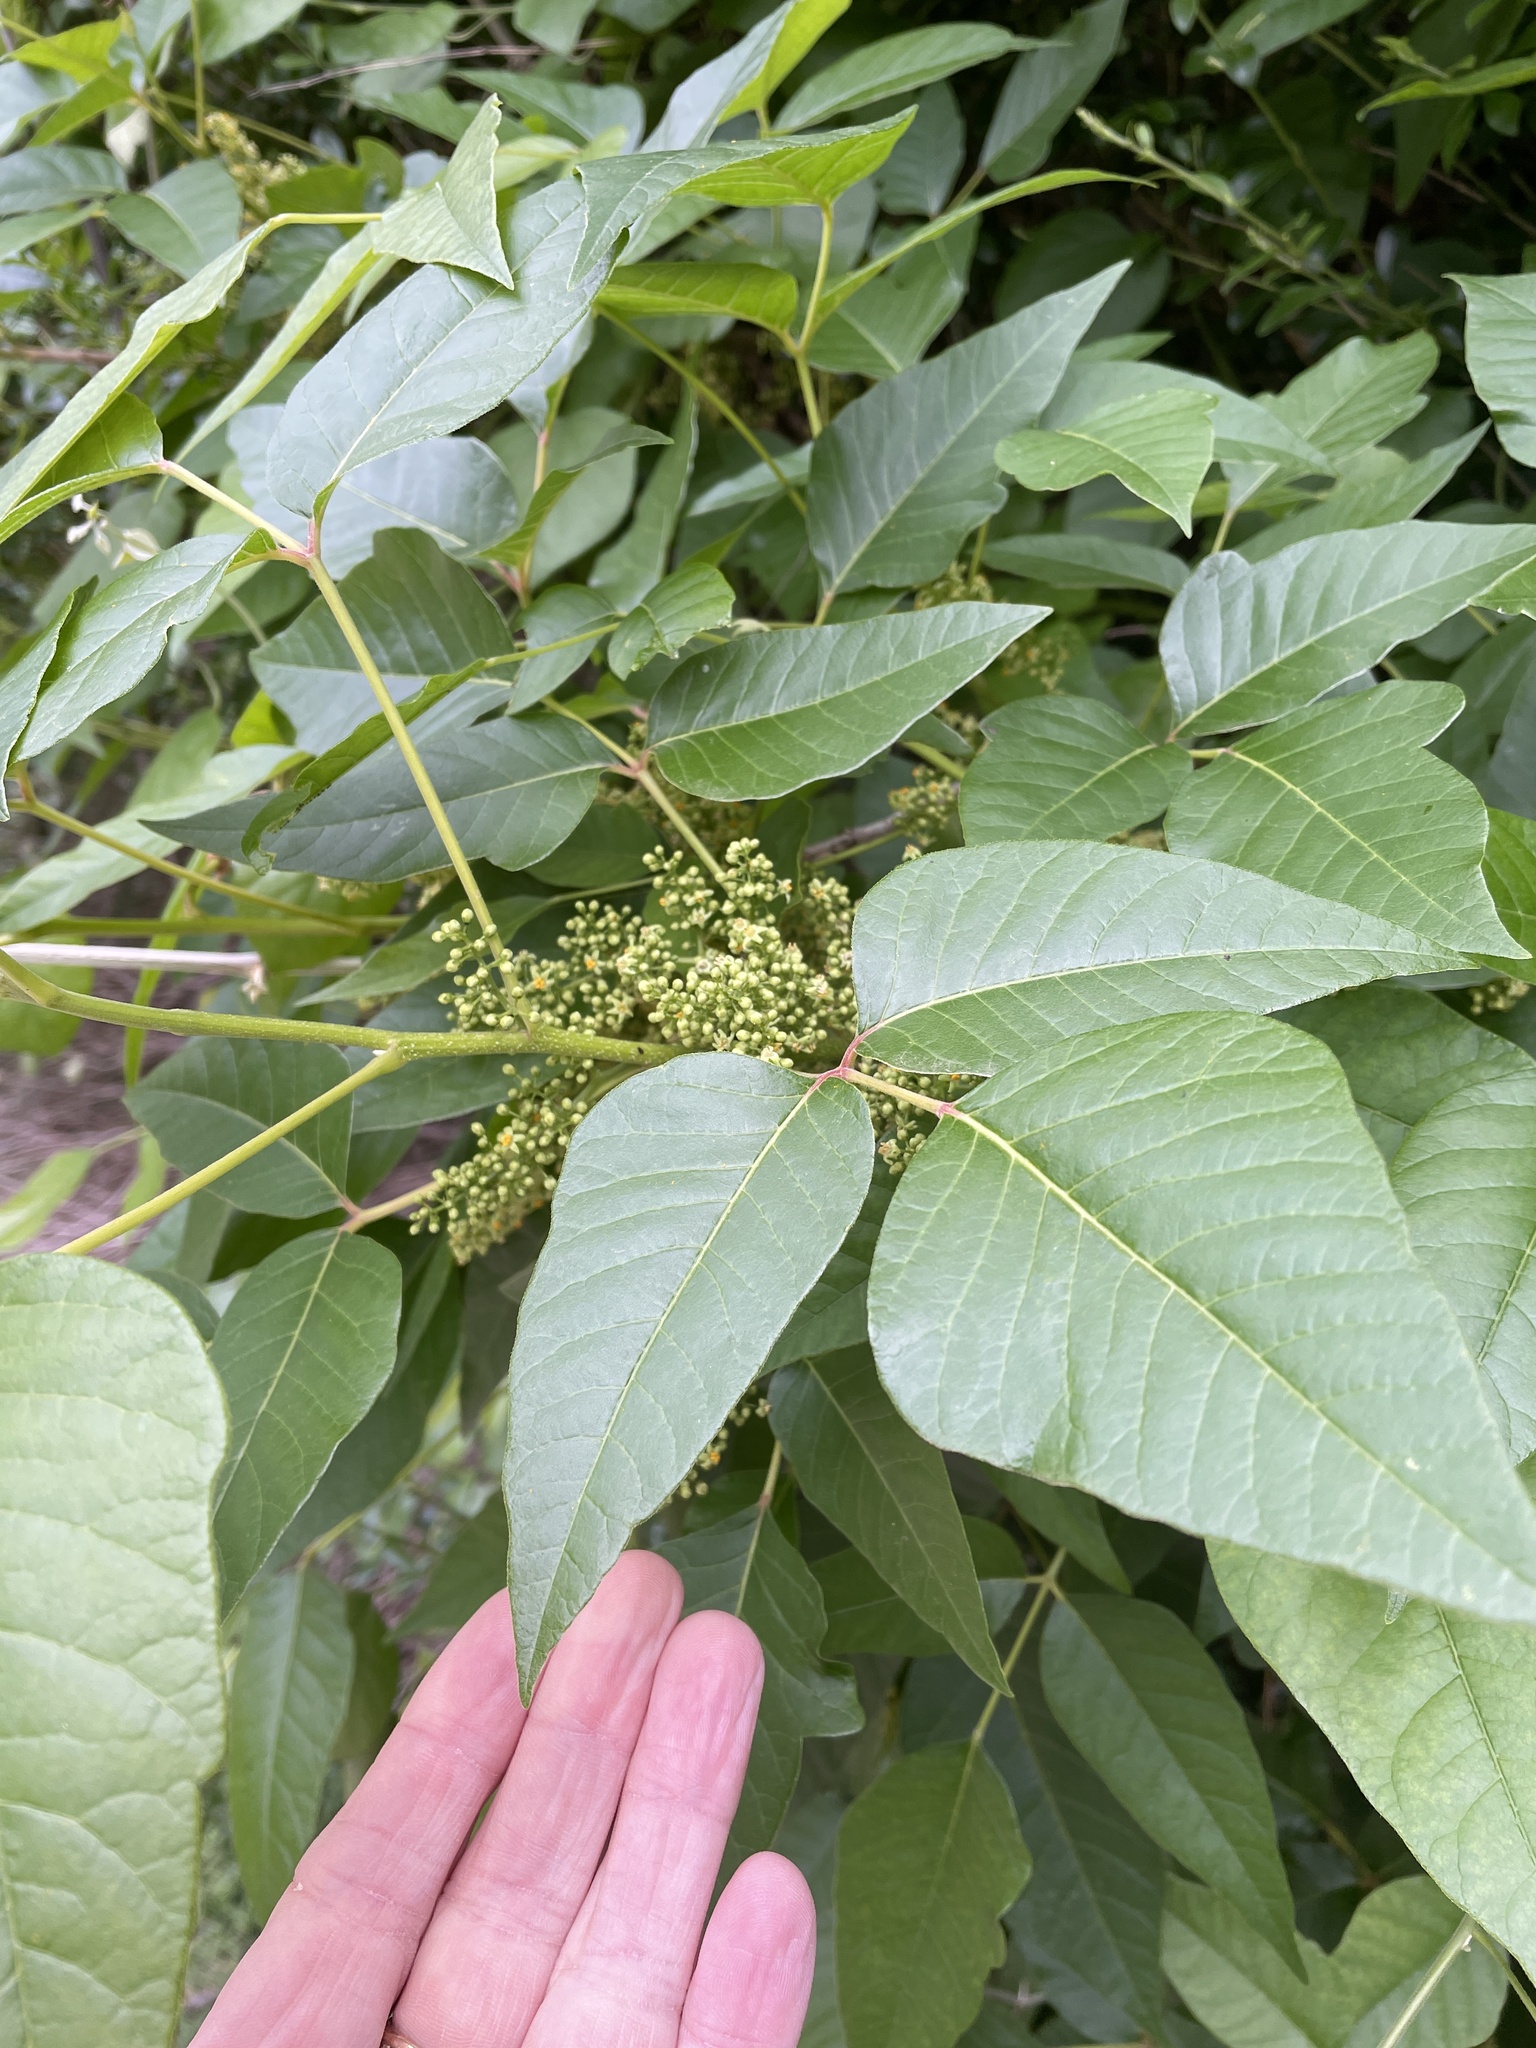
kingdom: Plantae
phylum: Tracheophyta
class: Magnoliopsida
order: Sapindales
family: Anacardiaceae
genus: Toxicodendron
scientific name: Toxicodendron radicans
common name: Poison ivy
